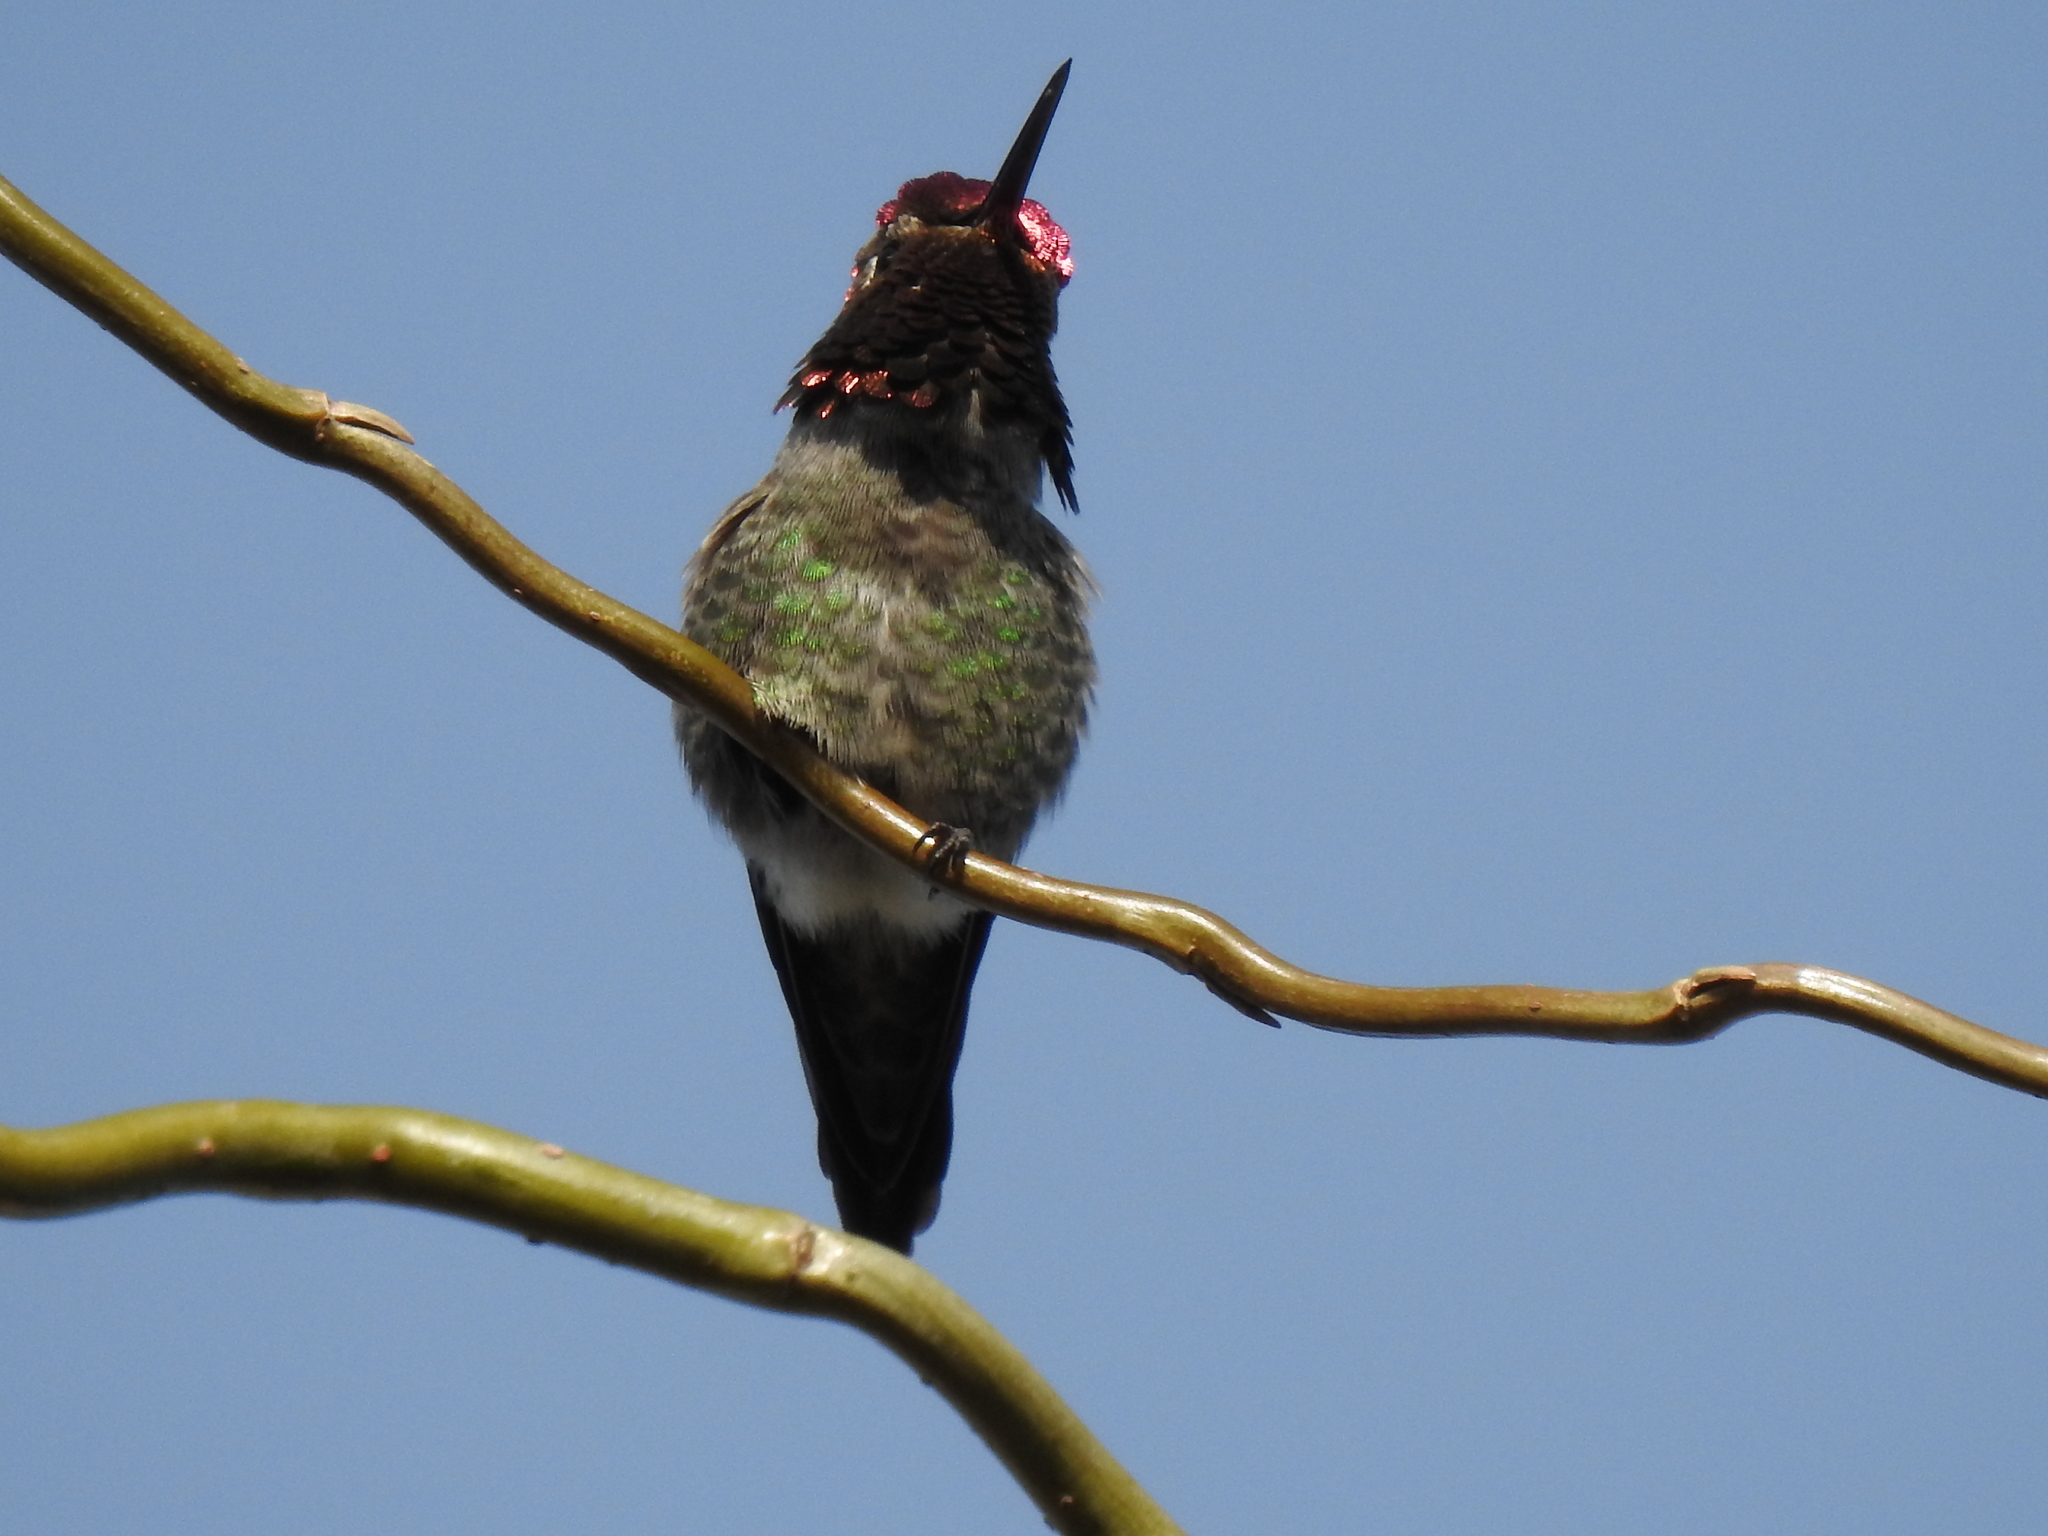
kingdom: Animalia
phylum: Chordata
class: Aves
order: Apodiformes
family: Trochilidae
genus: Calypte
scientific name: Calypte anna
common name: Anna's hummingbird
